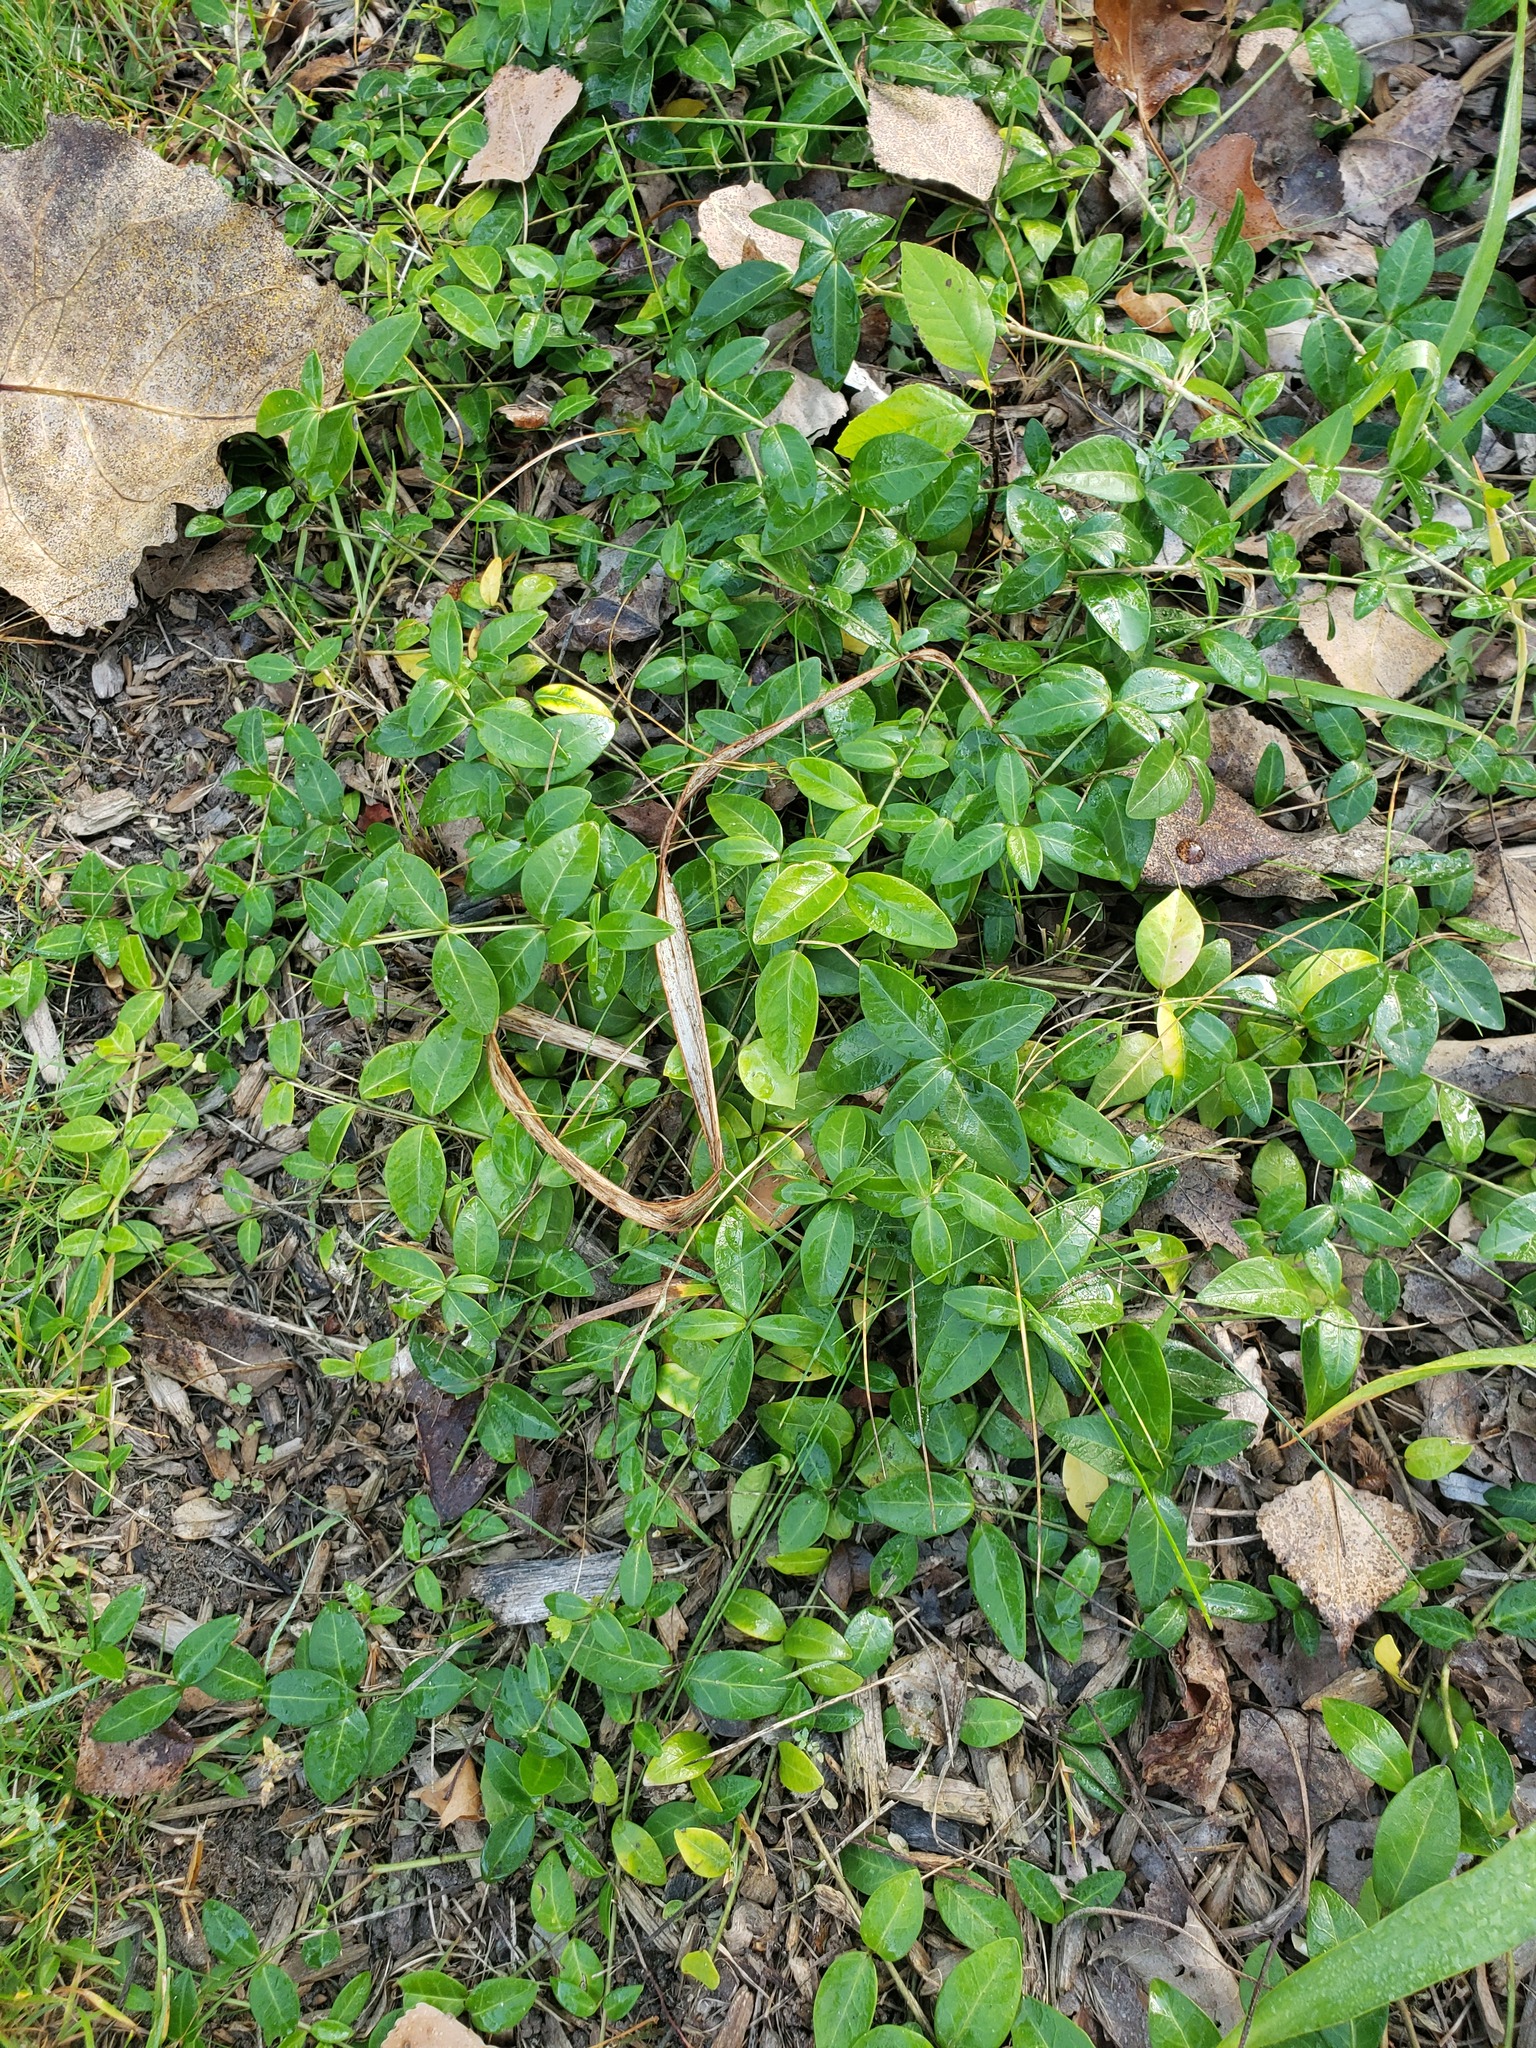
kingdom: Plantae
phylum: Tracheophyta
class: Magnoliopsida
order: Gentianales
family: Apocynaceae
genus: Vinca
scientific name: Vinca minor
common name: Lesser periwinkle
